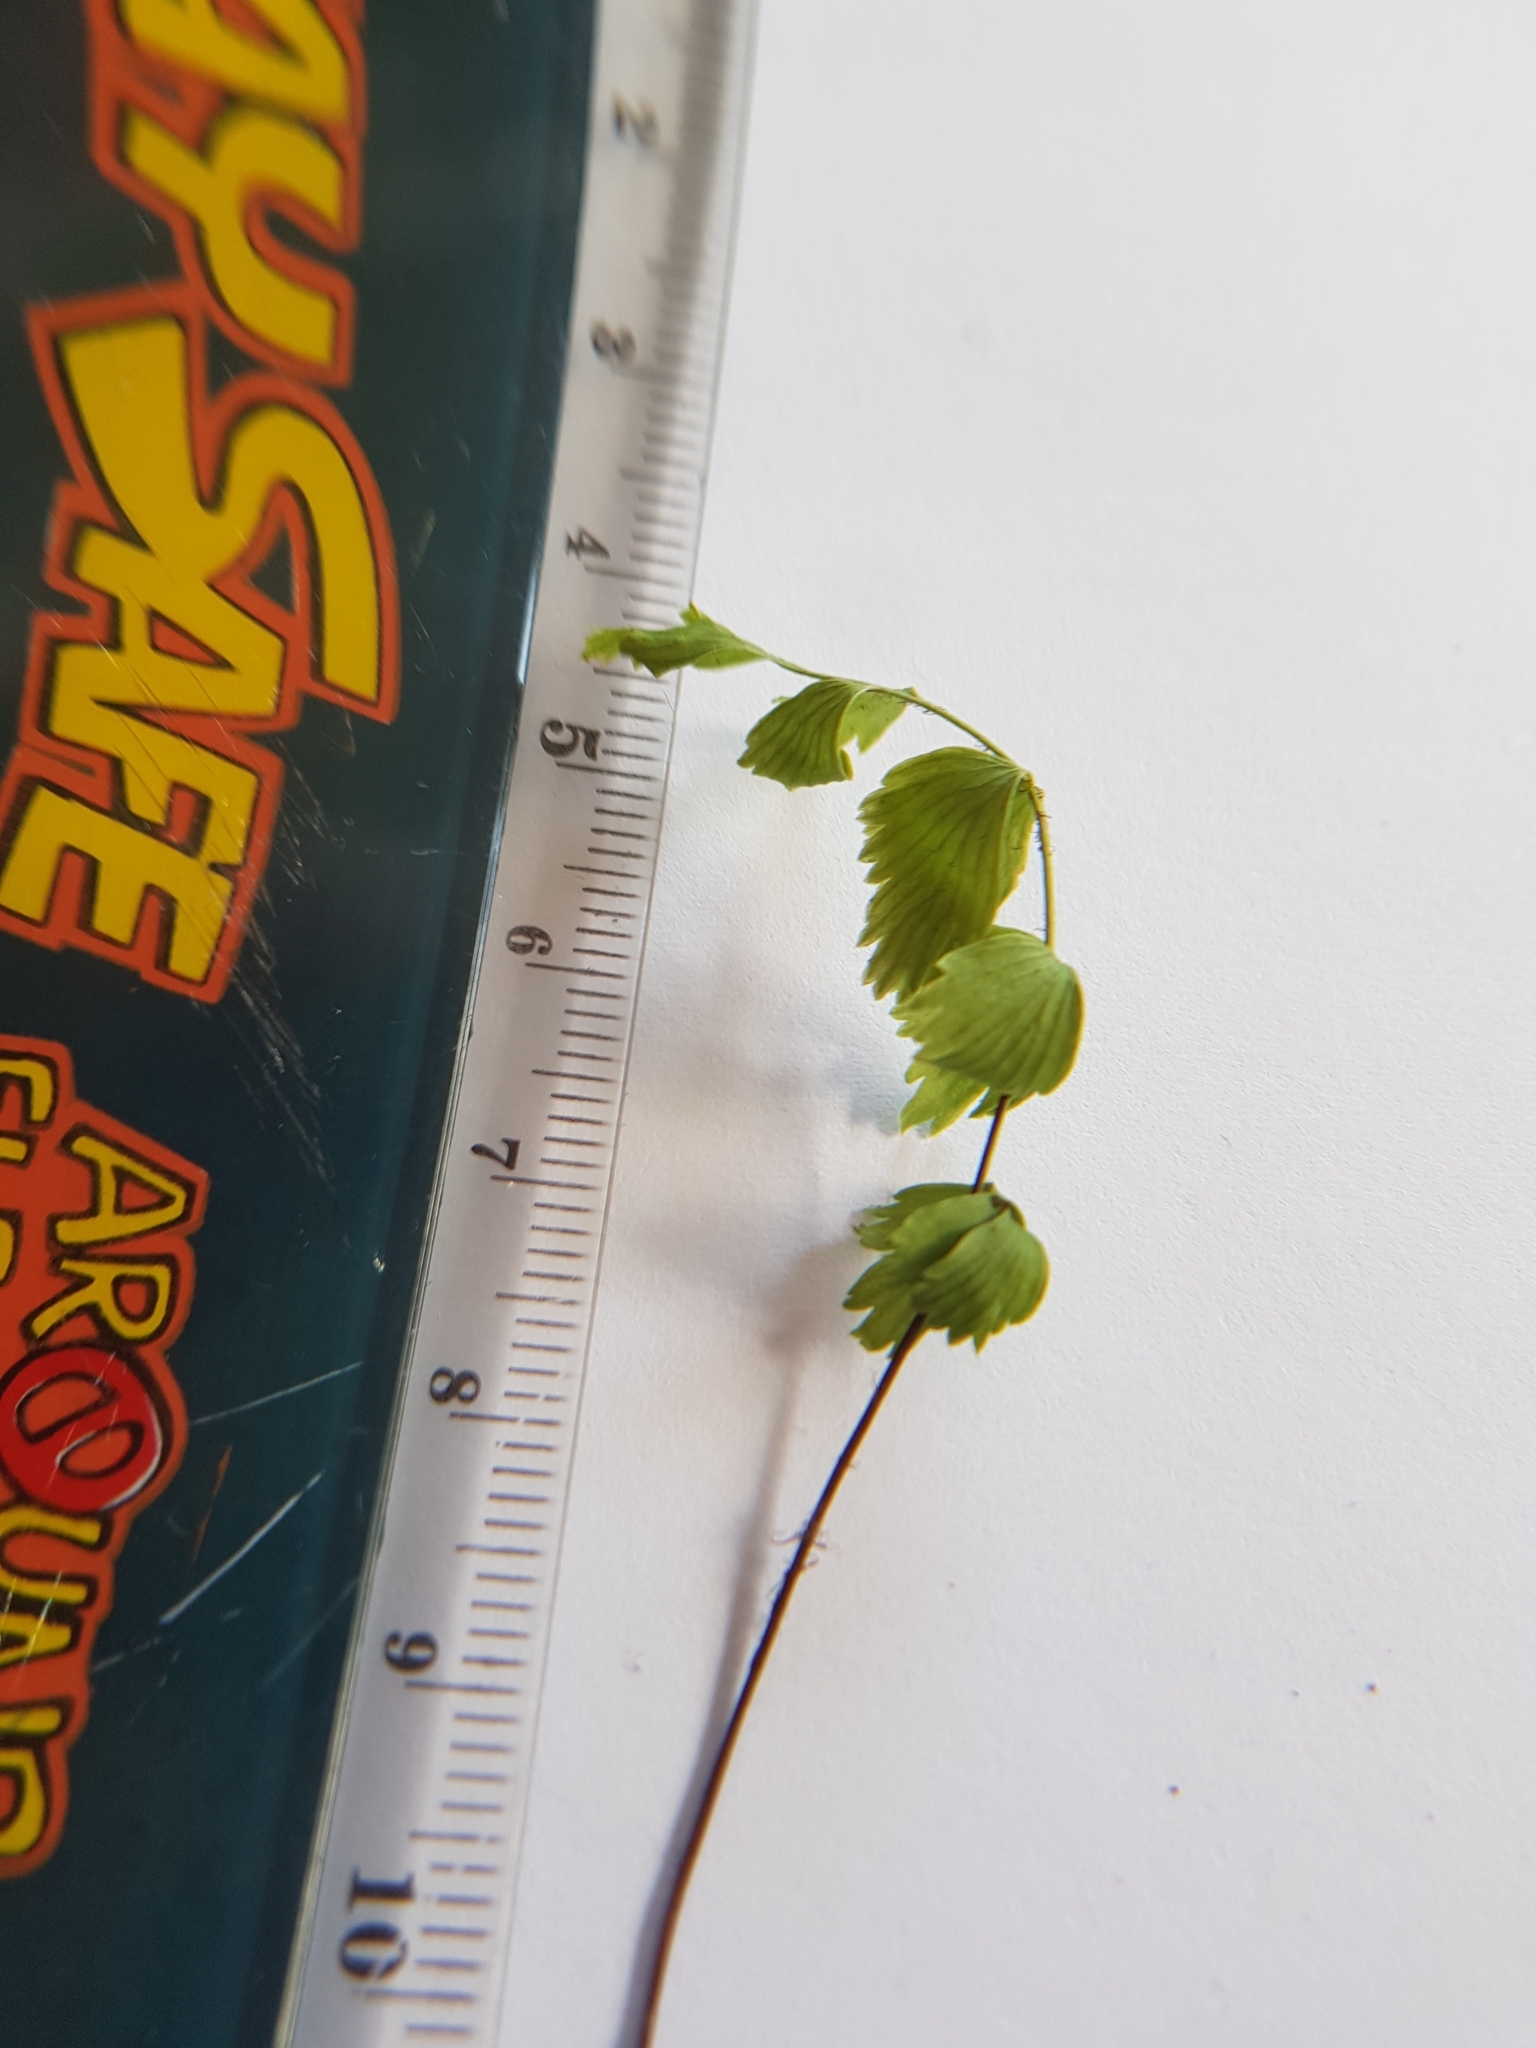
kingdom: Plantae
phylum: Tracheophyta
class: Polypodiopsida
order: Polypodiales
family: Aspleniaceae
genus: Asplenium
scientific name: Asplenium polyodon
